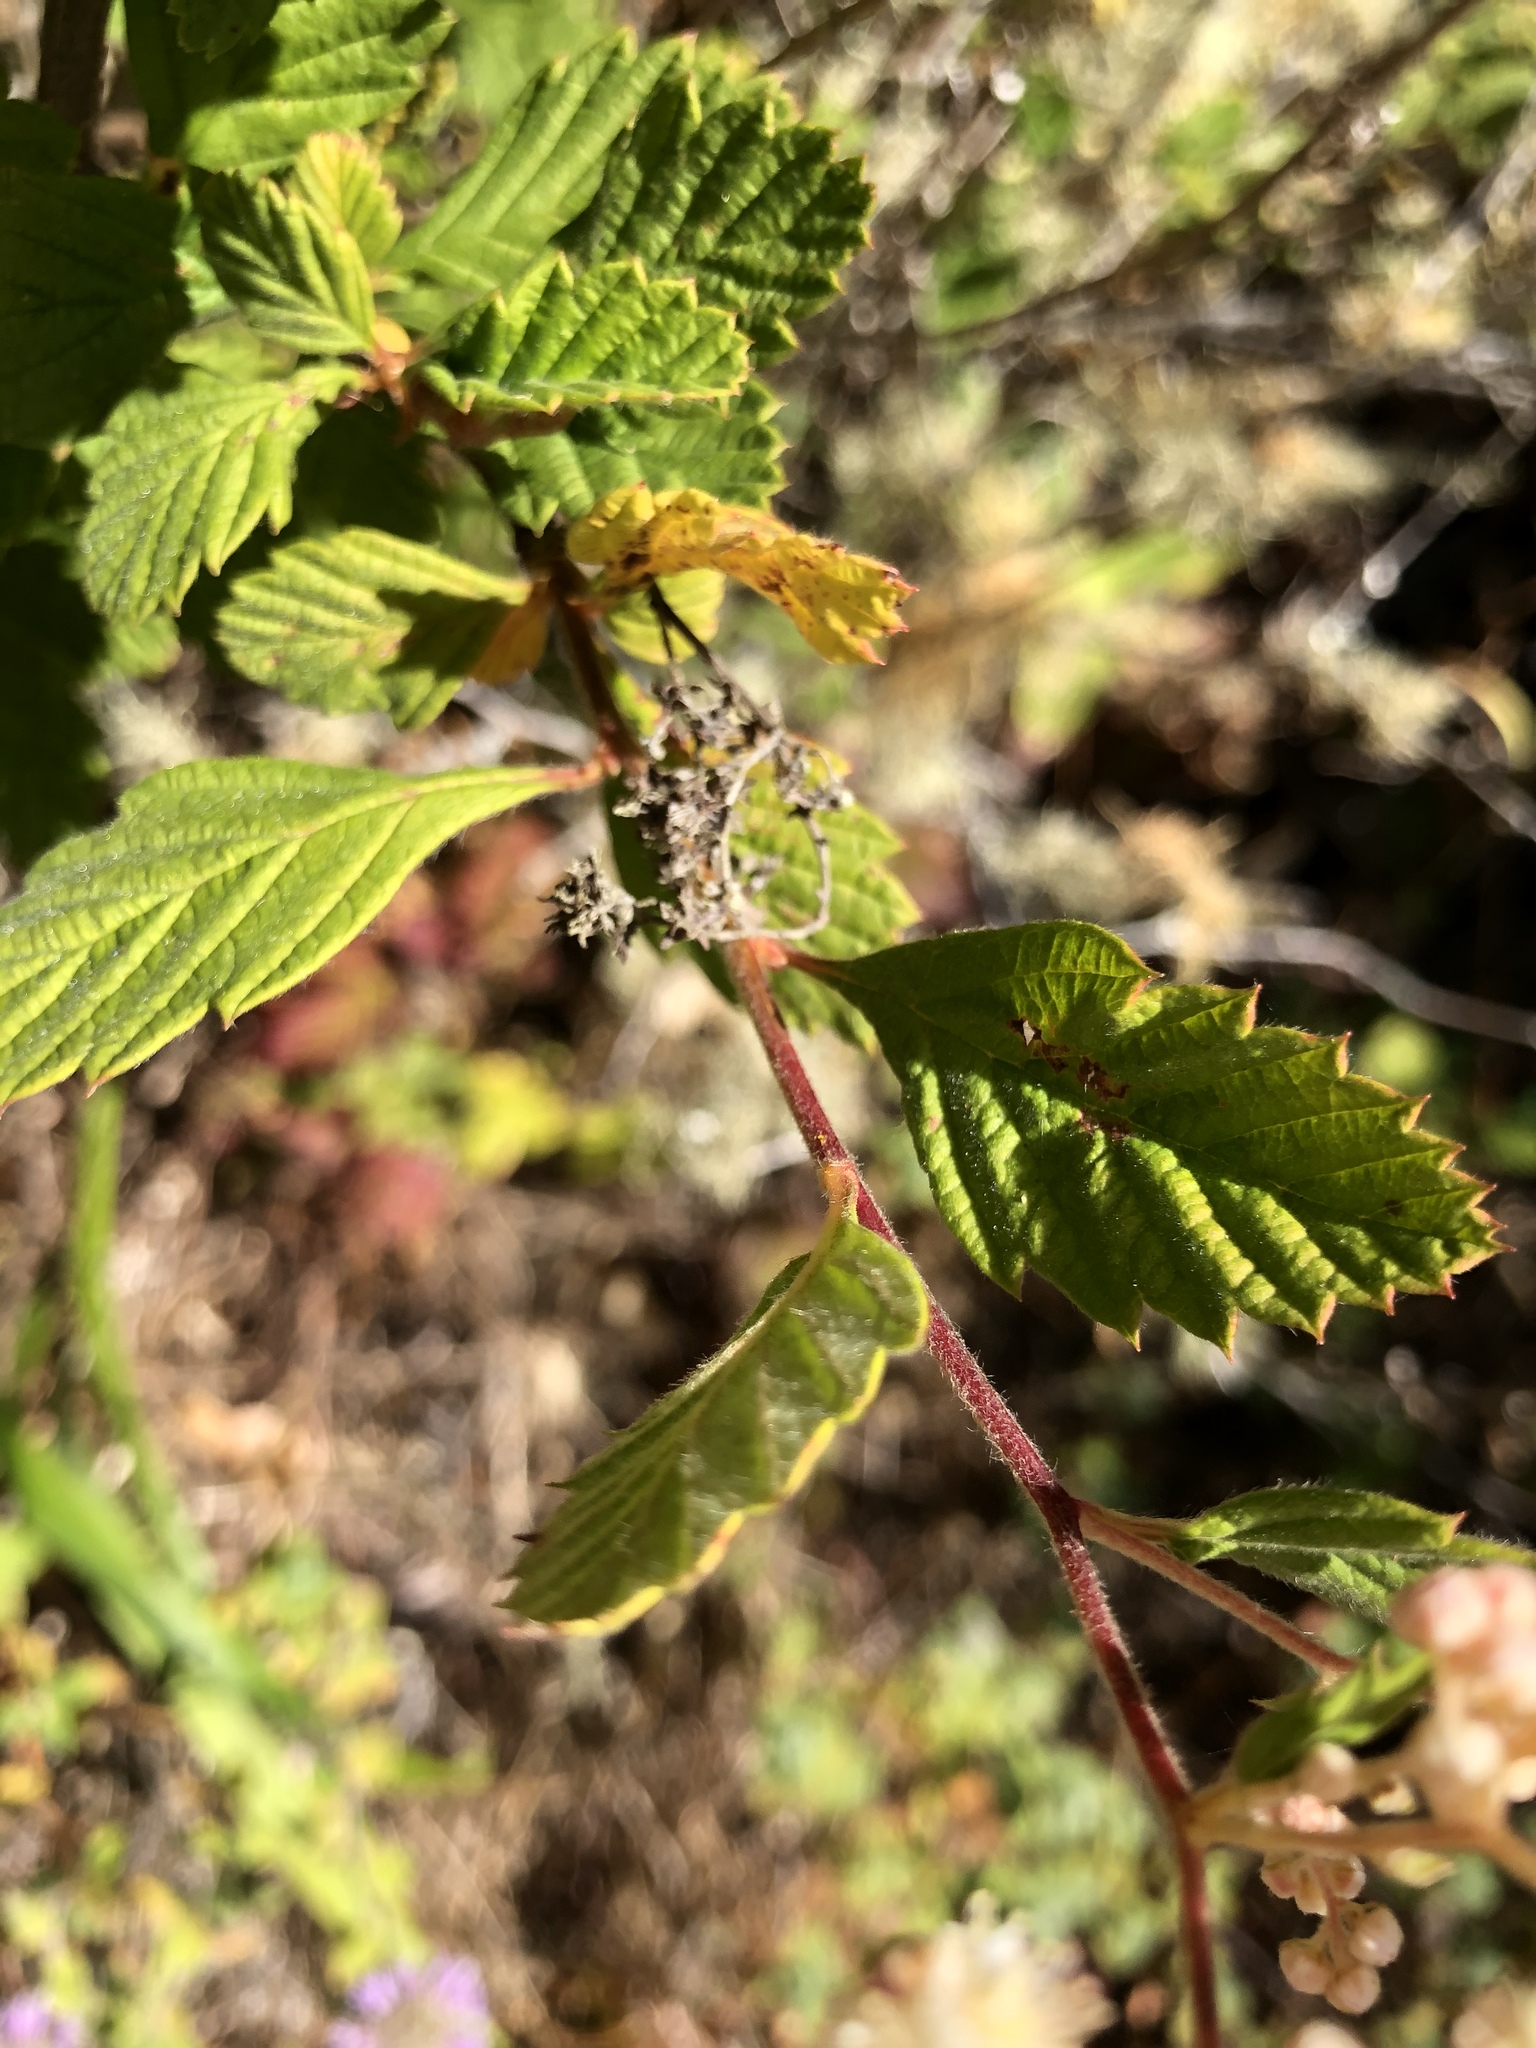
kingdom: Plantae
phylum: Tracheophyta
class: Magnoliopsida
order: Rosales
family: Rosaceae
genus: Holodiscus
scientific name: Holodiscus discolor
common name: Oceanspray
